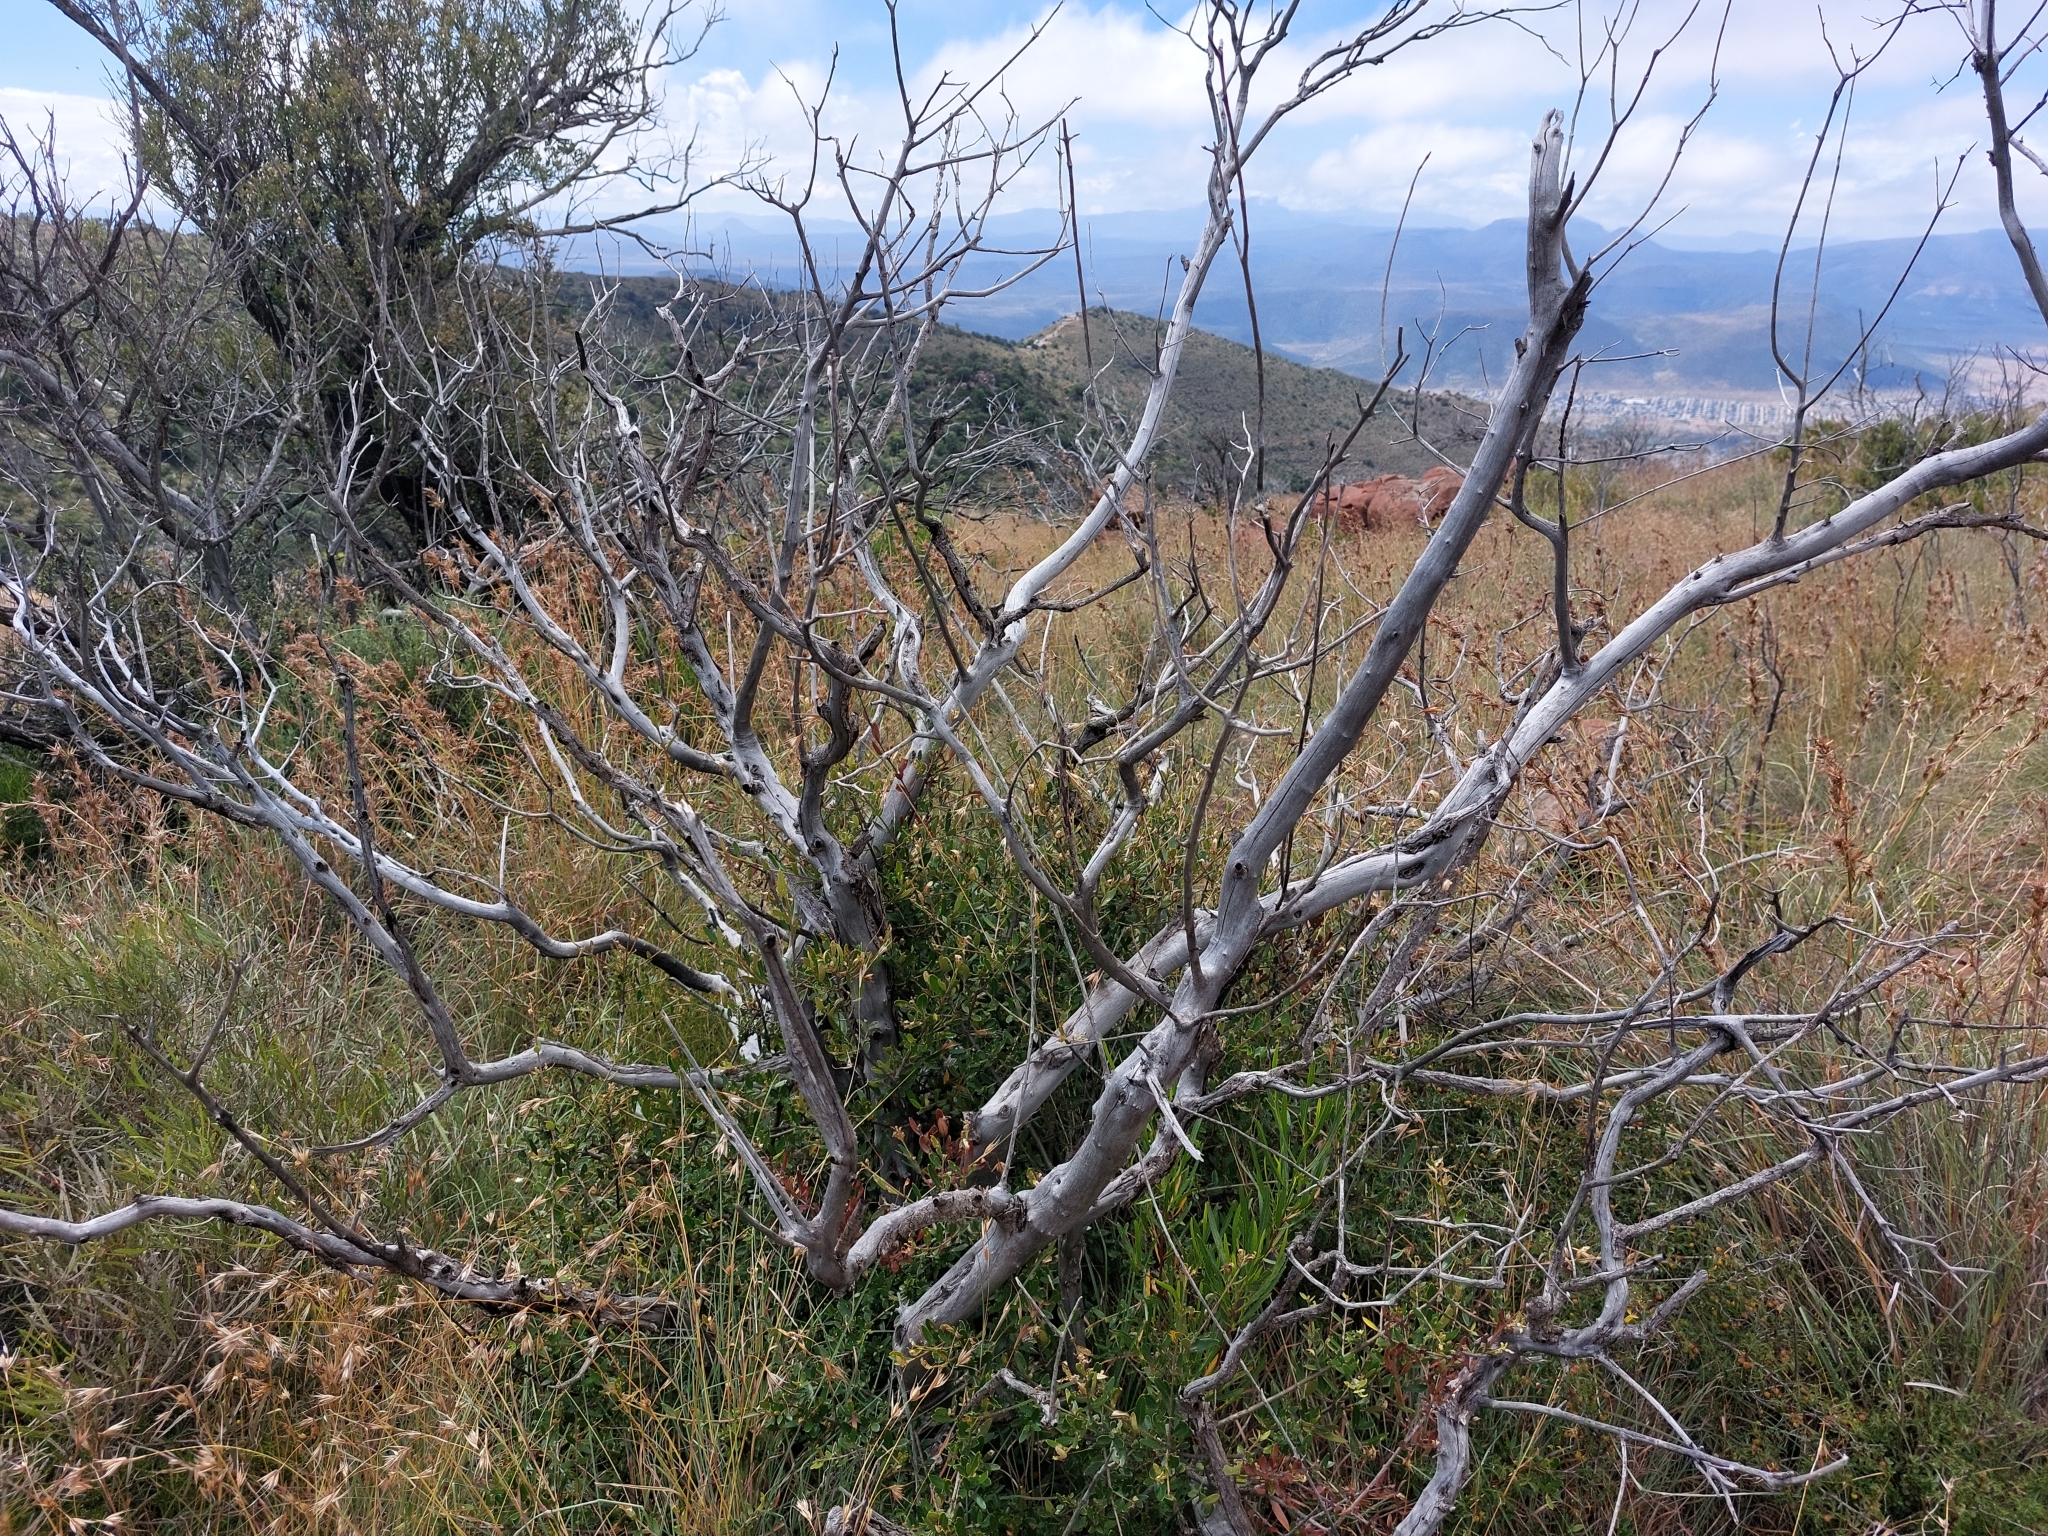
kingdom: Plantae
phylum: Tracheophyta
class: Magnoliopsida
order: Lamiales
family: Oleaceae
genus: Olea
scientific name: Olea europaea
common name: Olive
